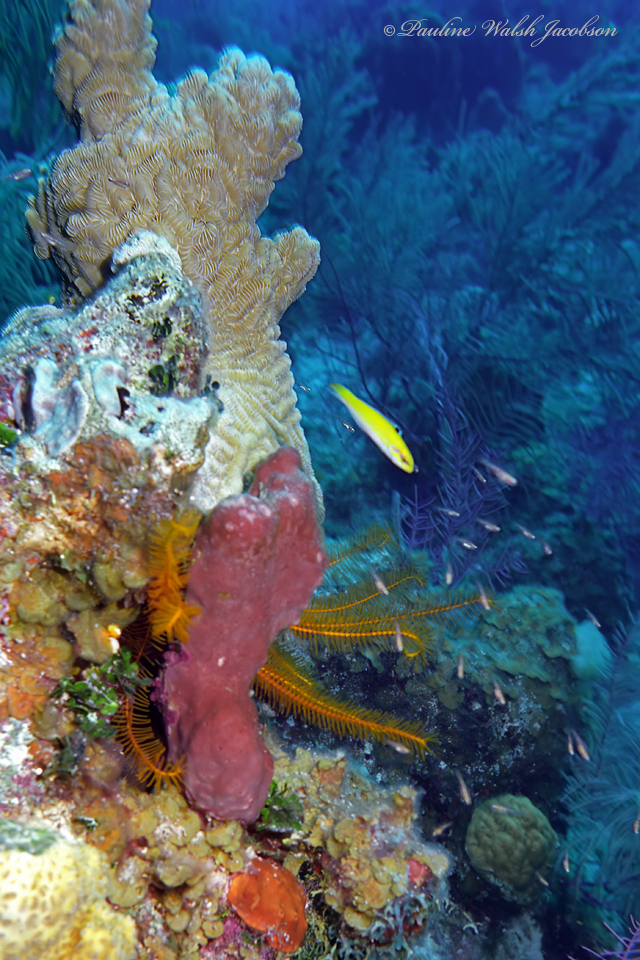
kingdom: Animalia
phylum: Cnidaria
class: Anthozoa
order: Scleractinia
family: Meandrinidae
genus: Meandrina
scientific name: Meandrina meandrites
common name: Maze coral
